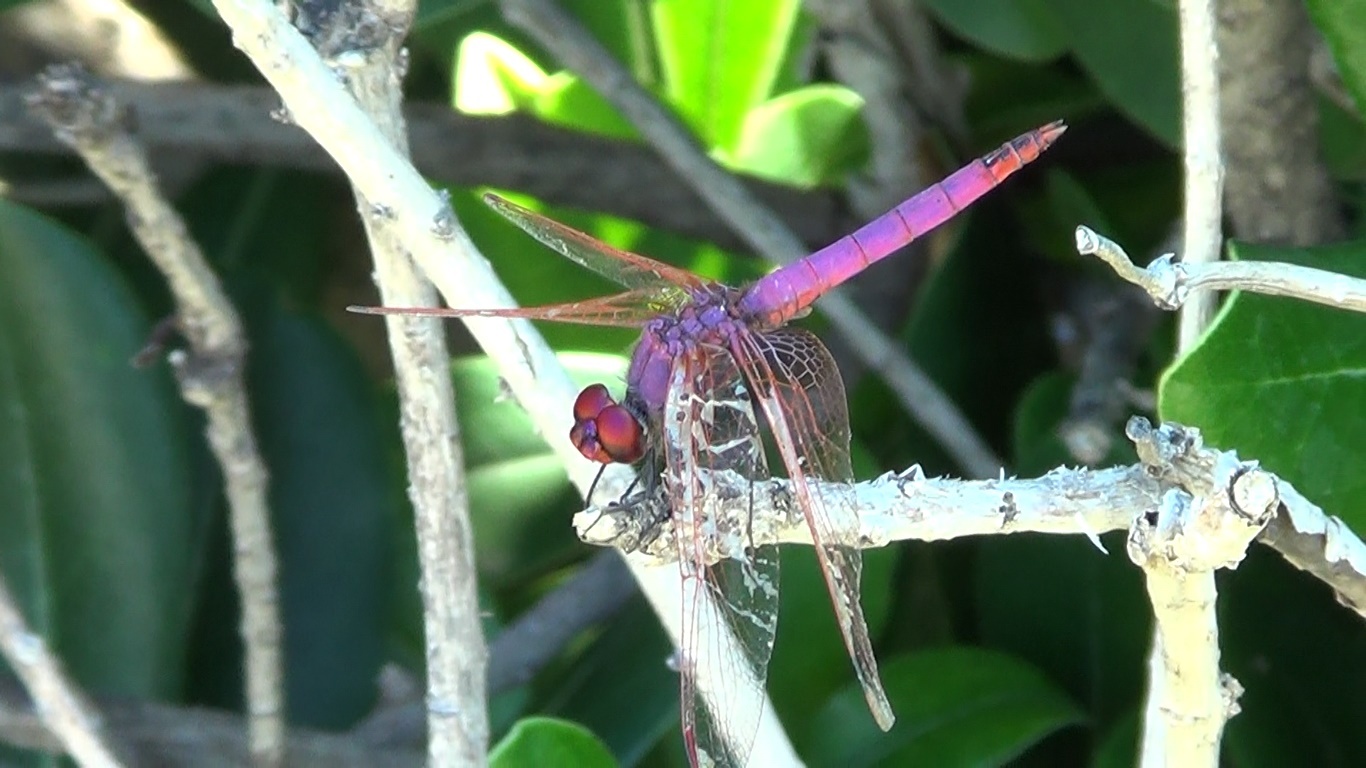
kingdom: Animalia
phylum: Arthropoda
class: Insecta
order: Odonata
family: Libellulidae
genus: Trithemis
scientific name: Trithemis annulata
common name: Violet dropwing
